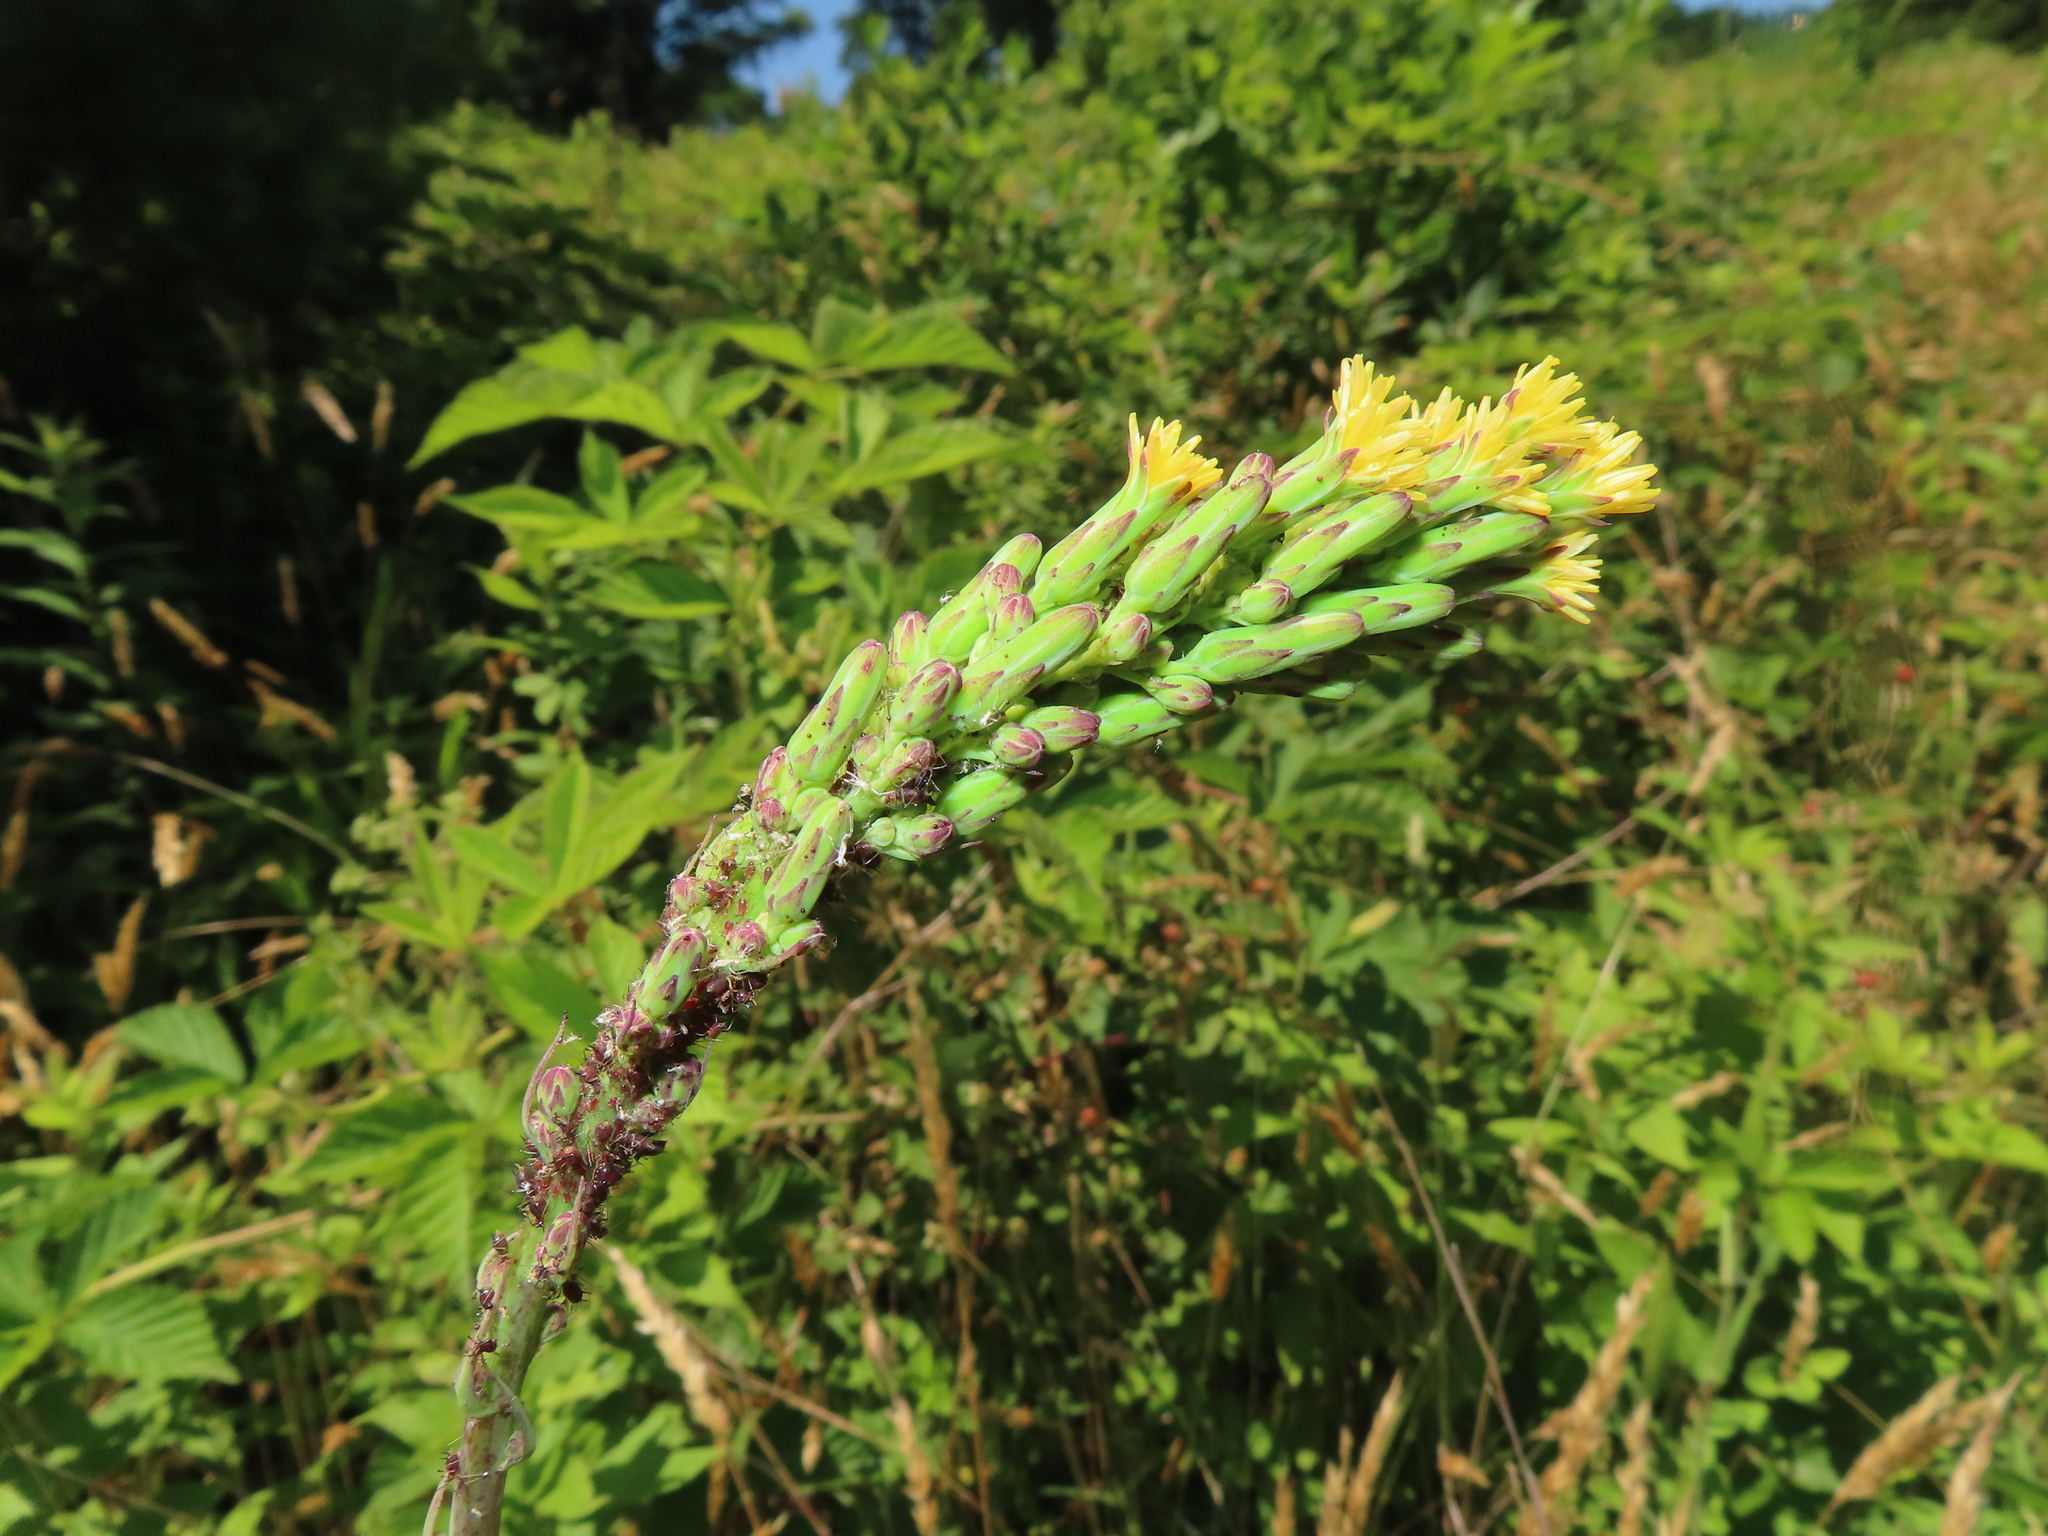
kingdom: Plantae
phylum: Tracheophyta
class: Magnoliopsida
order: Asterales
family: Asteraceae
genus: Lactuca
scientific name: Lactuca canadensis
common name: Canada lettuce
